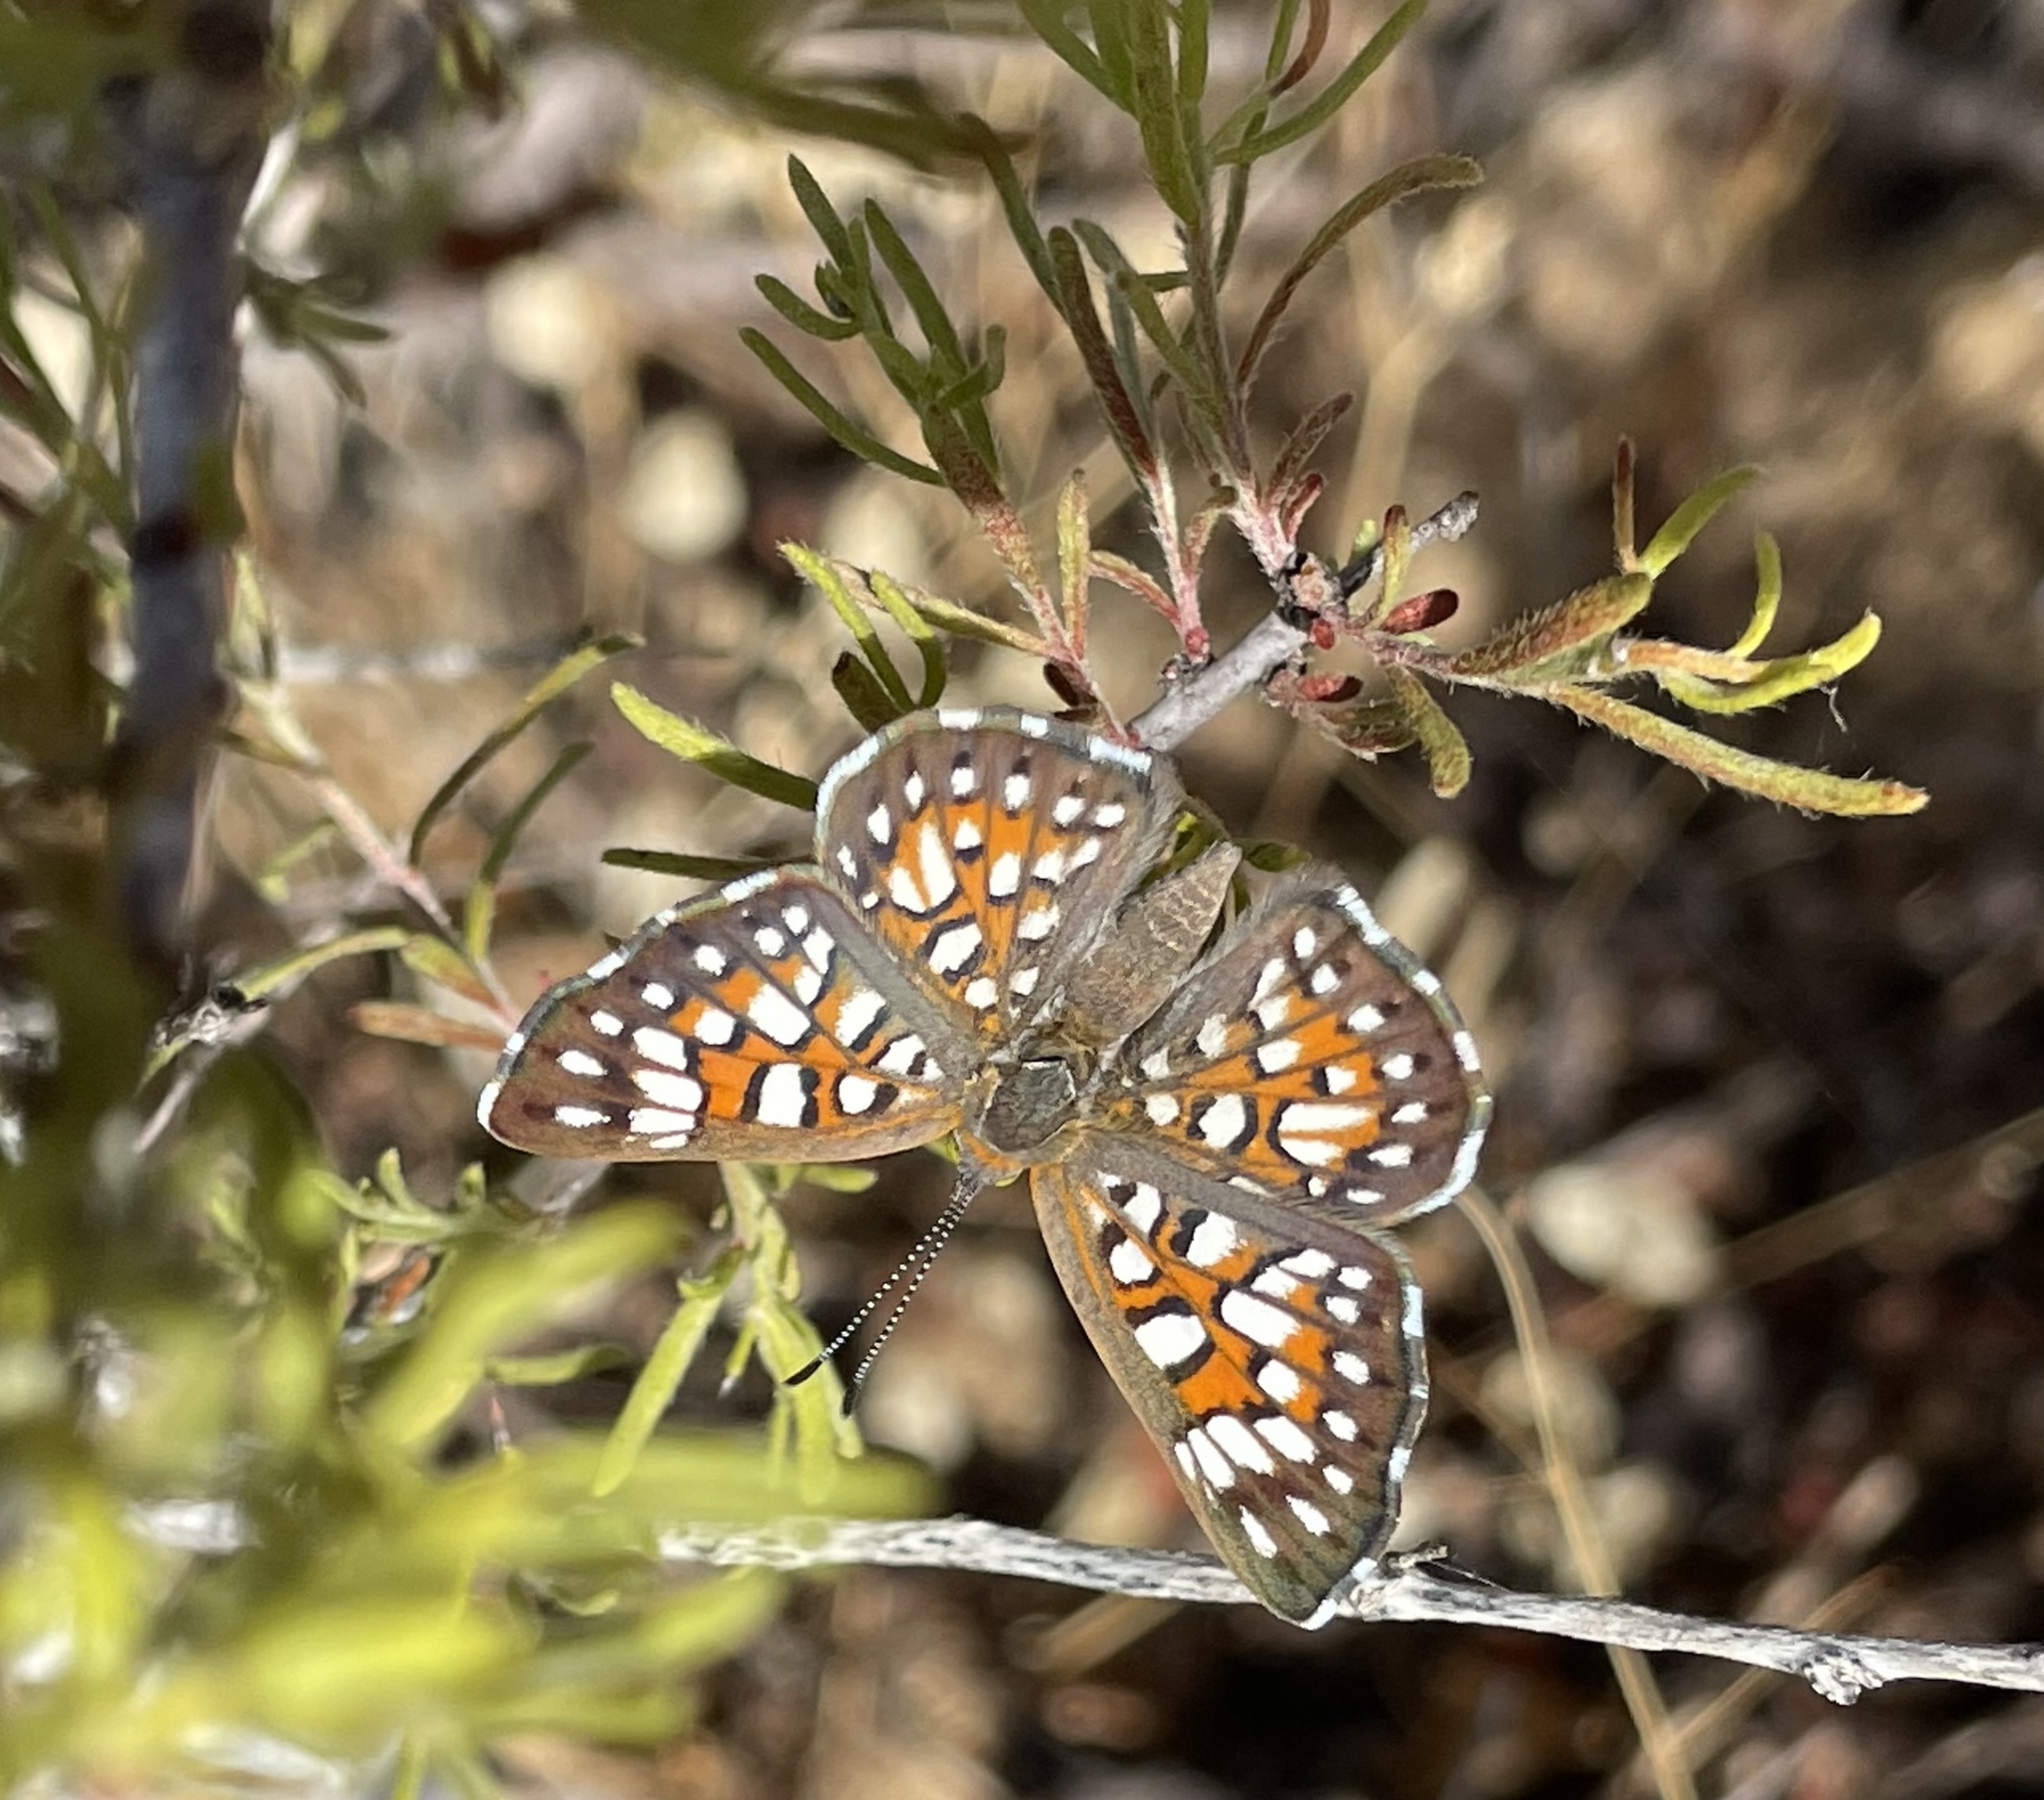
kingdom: Animalia
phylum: Arthropoda
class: Insecta
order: Lepidoptera
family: Riodinidae
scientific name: Riodinidae
